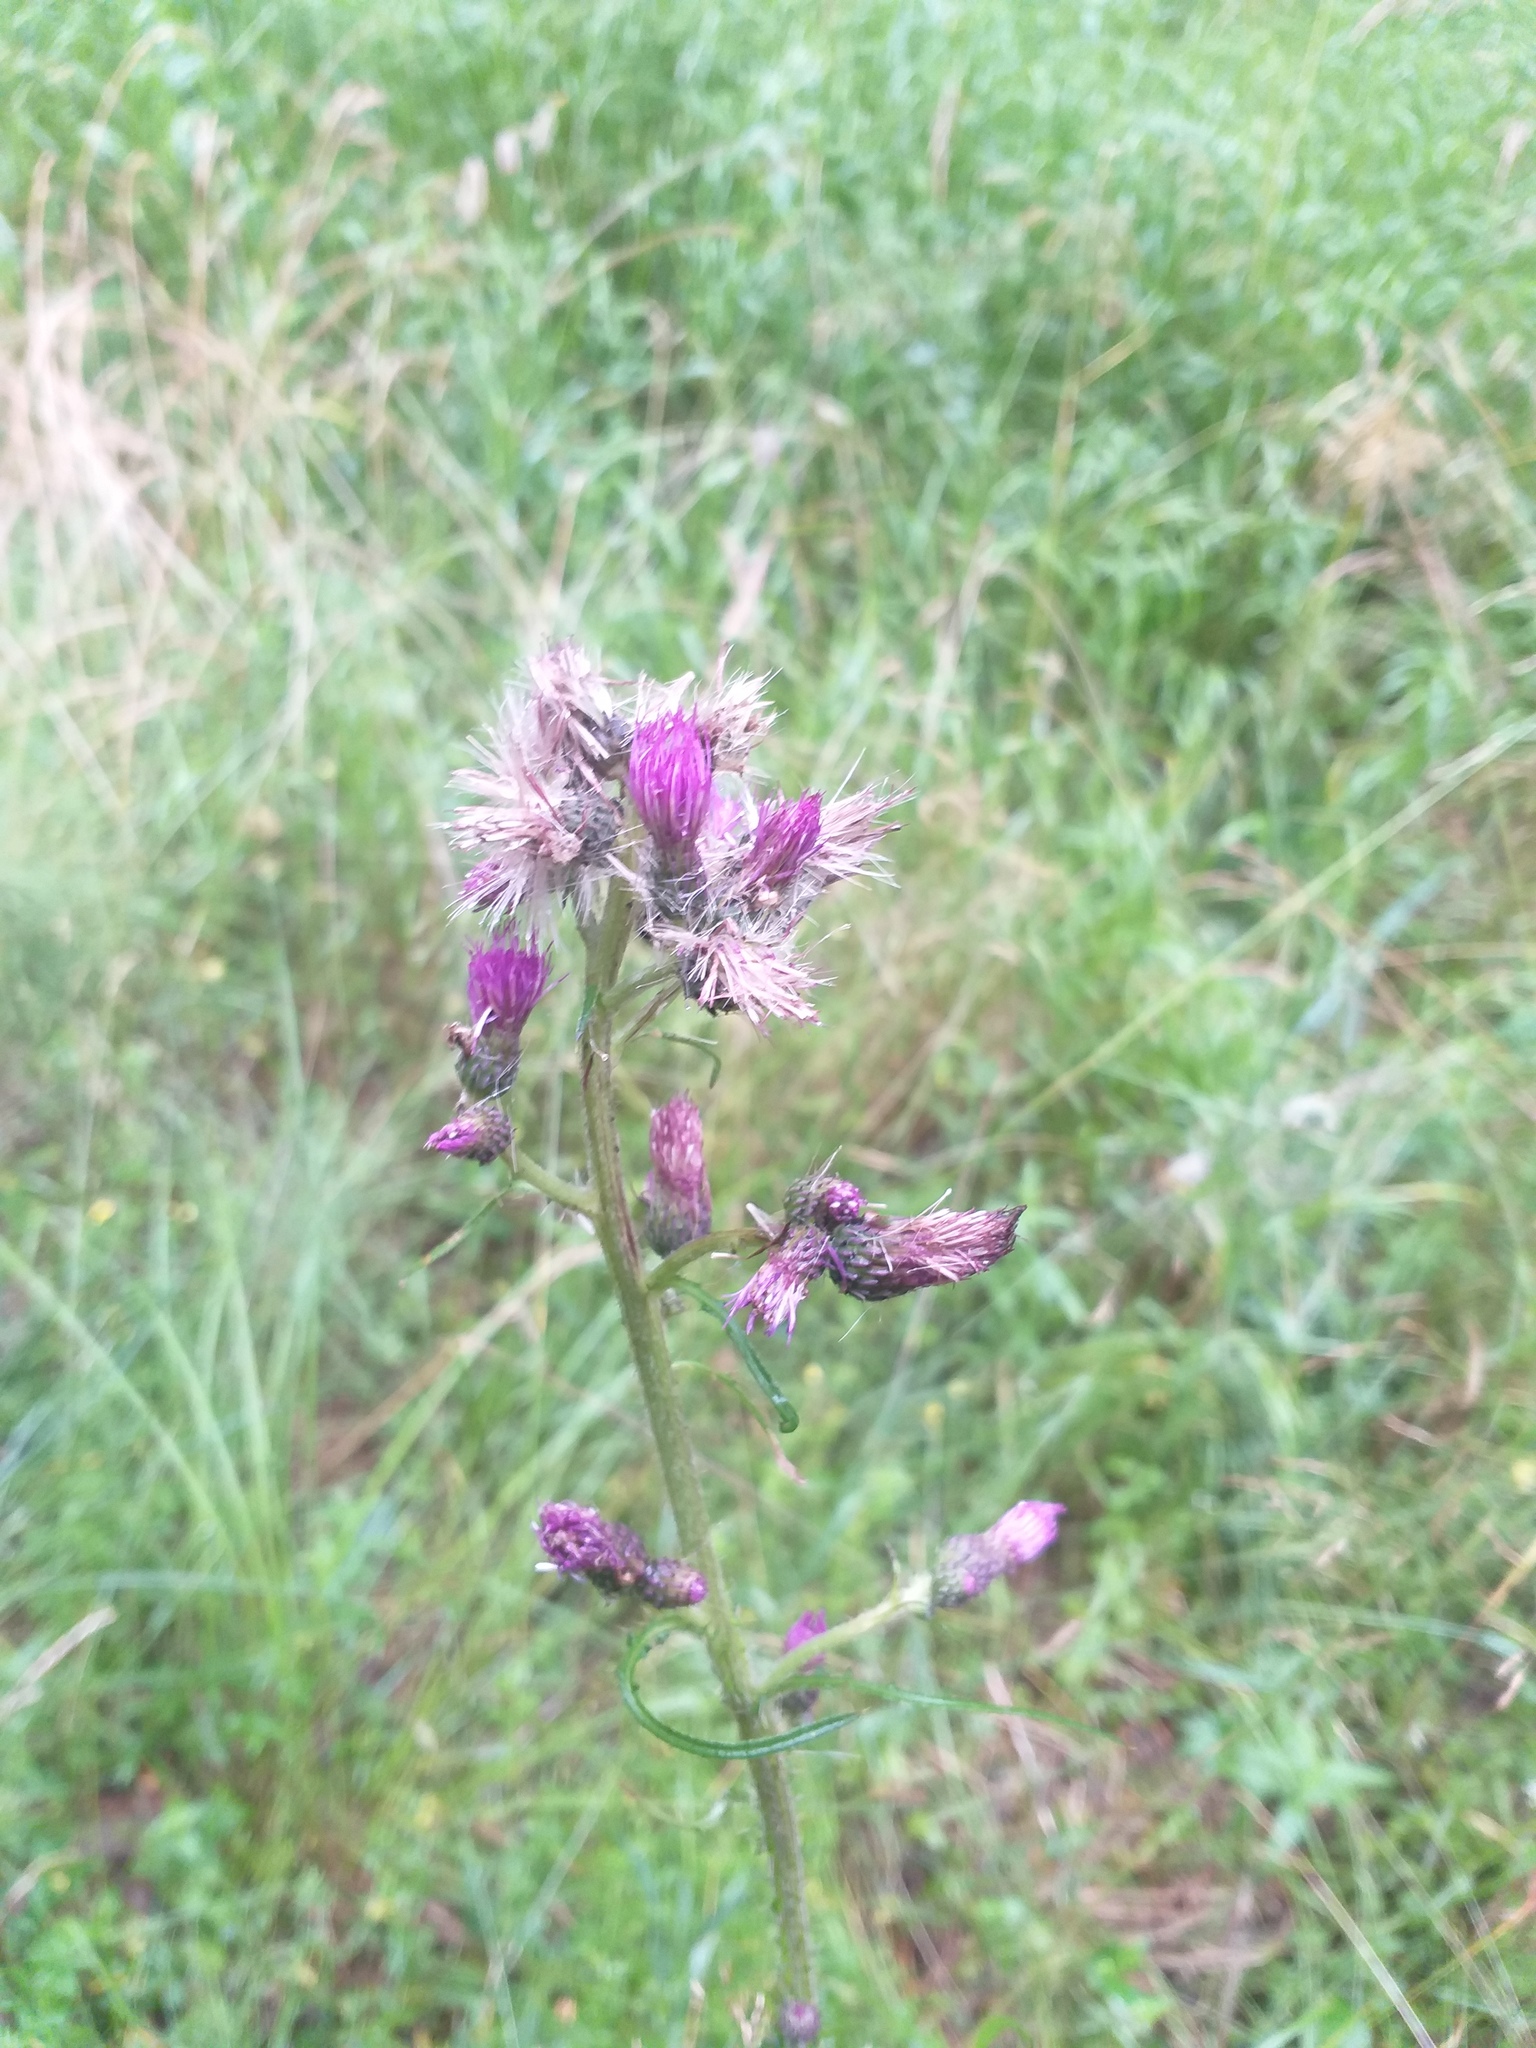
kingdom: Plantae
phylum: Tracheophyta
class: Magnoliopsida
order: Asterales
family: Asteraceae
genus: Cirsium
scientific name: Cirsium palustre
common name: Marsh thistle
